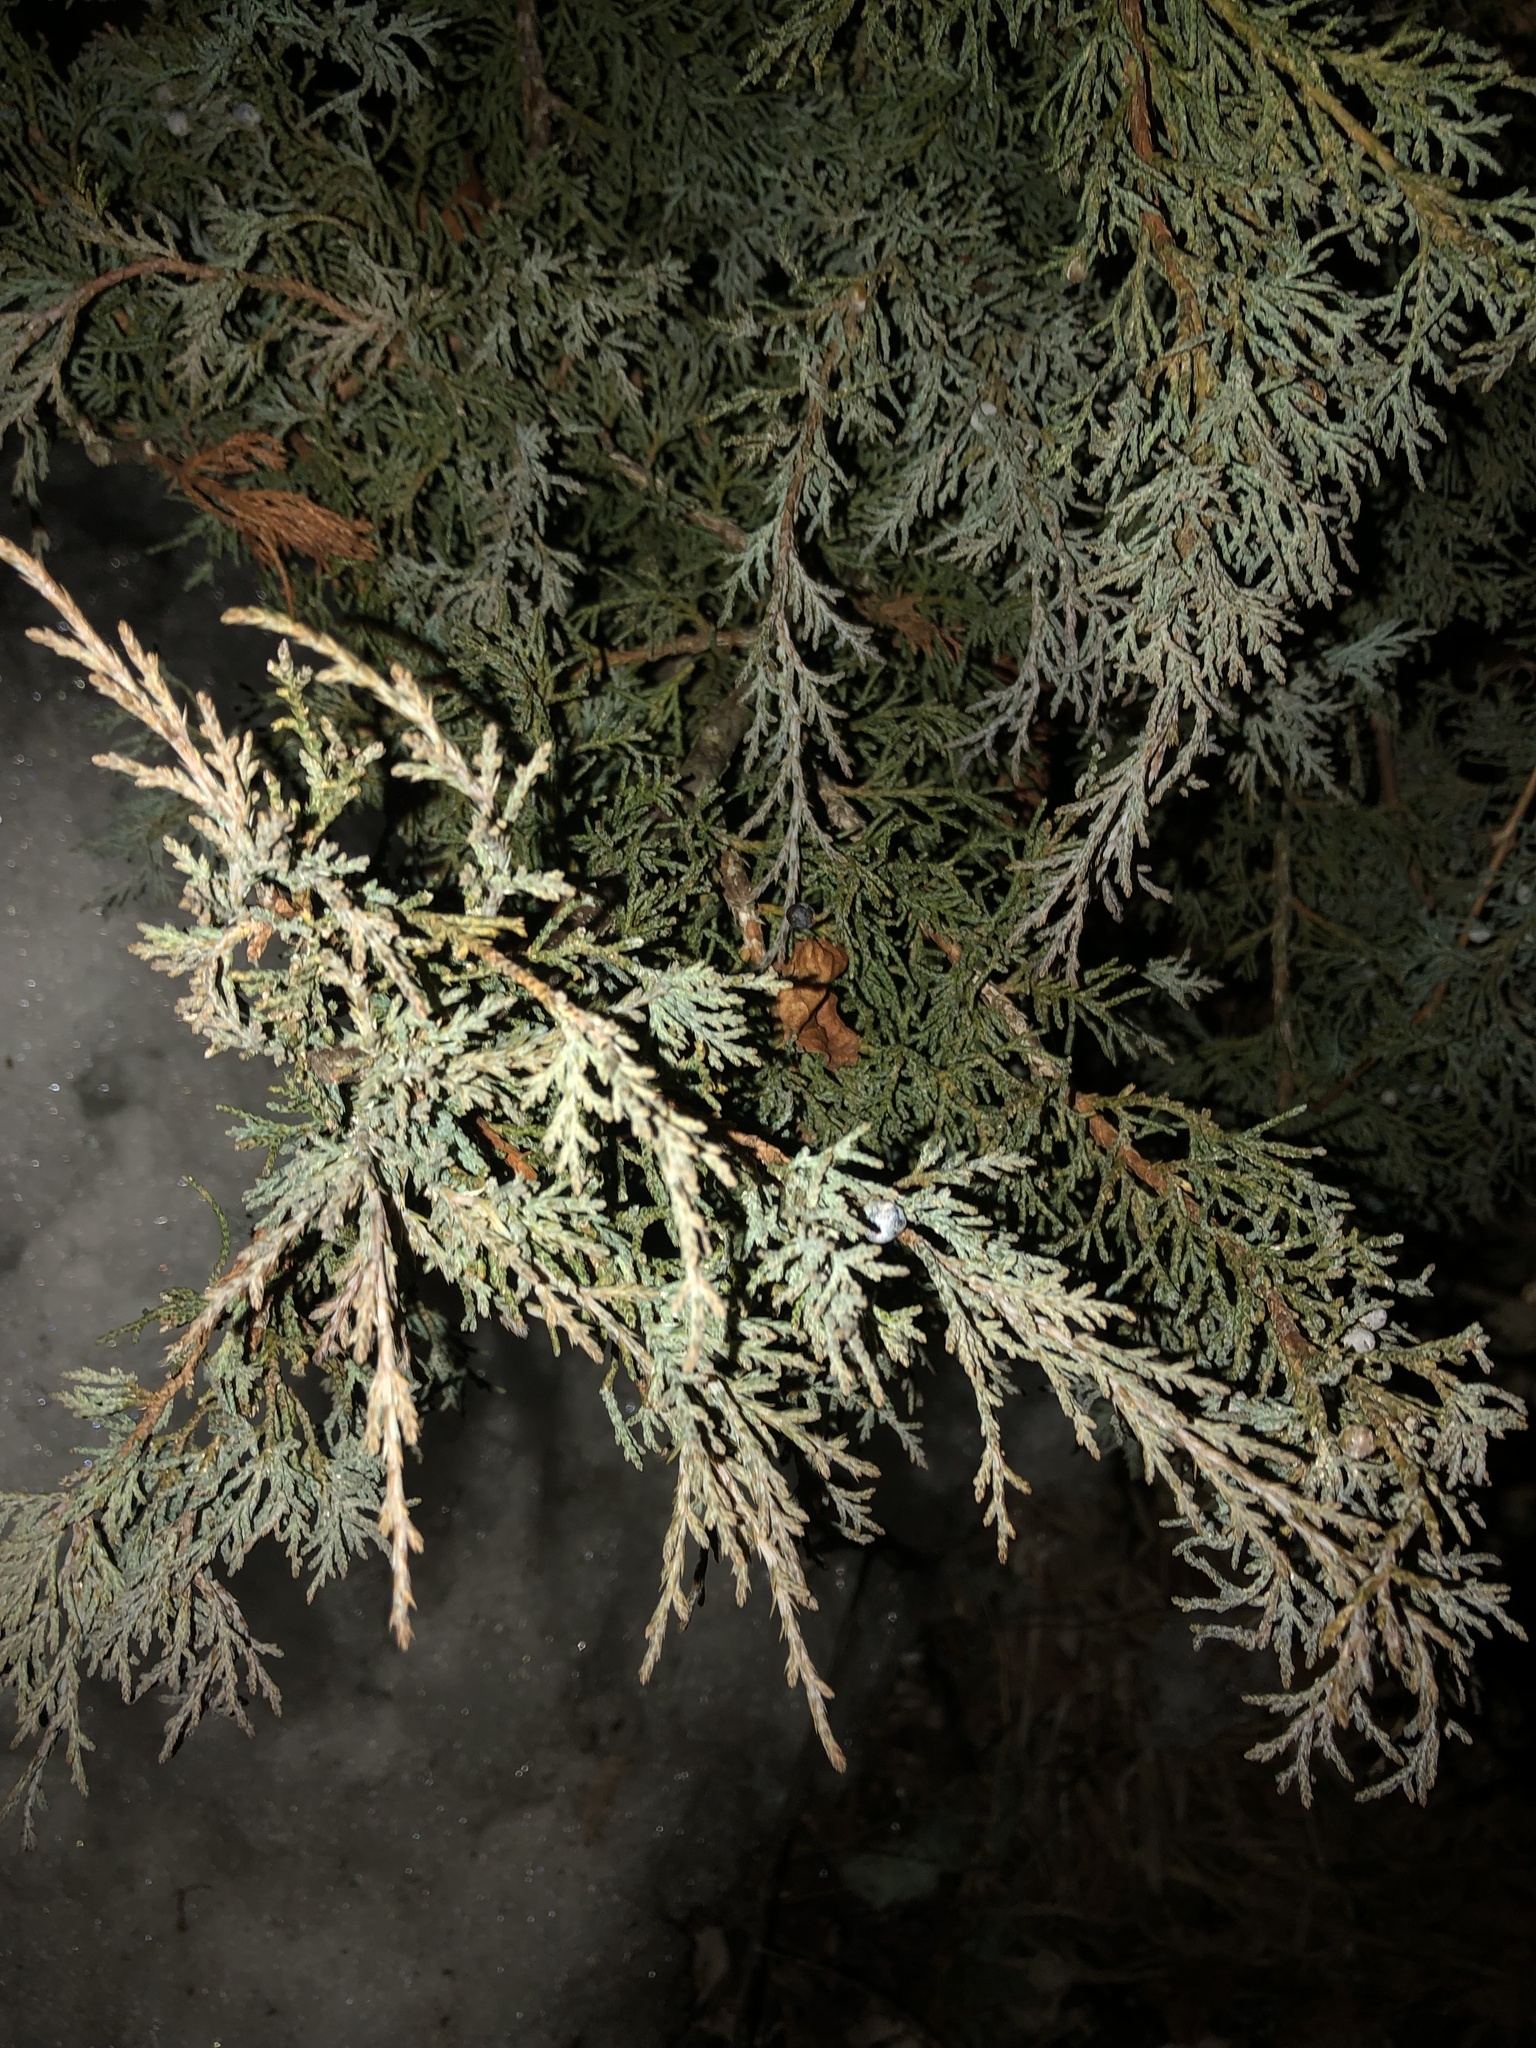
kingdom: Plantae
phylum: Tracheophyta
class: Pinopsida
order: Pinales
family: Cupressaceae
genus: Juniperus
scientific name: Juniperus virginiana
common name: Red juniper
